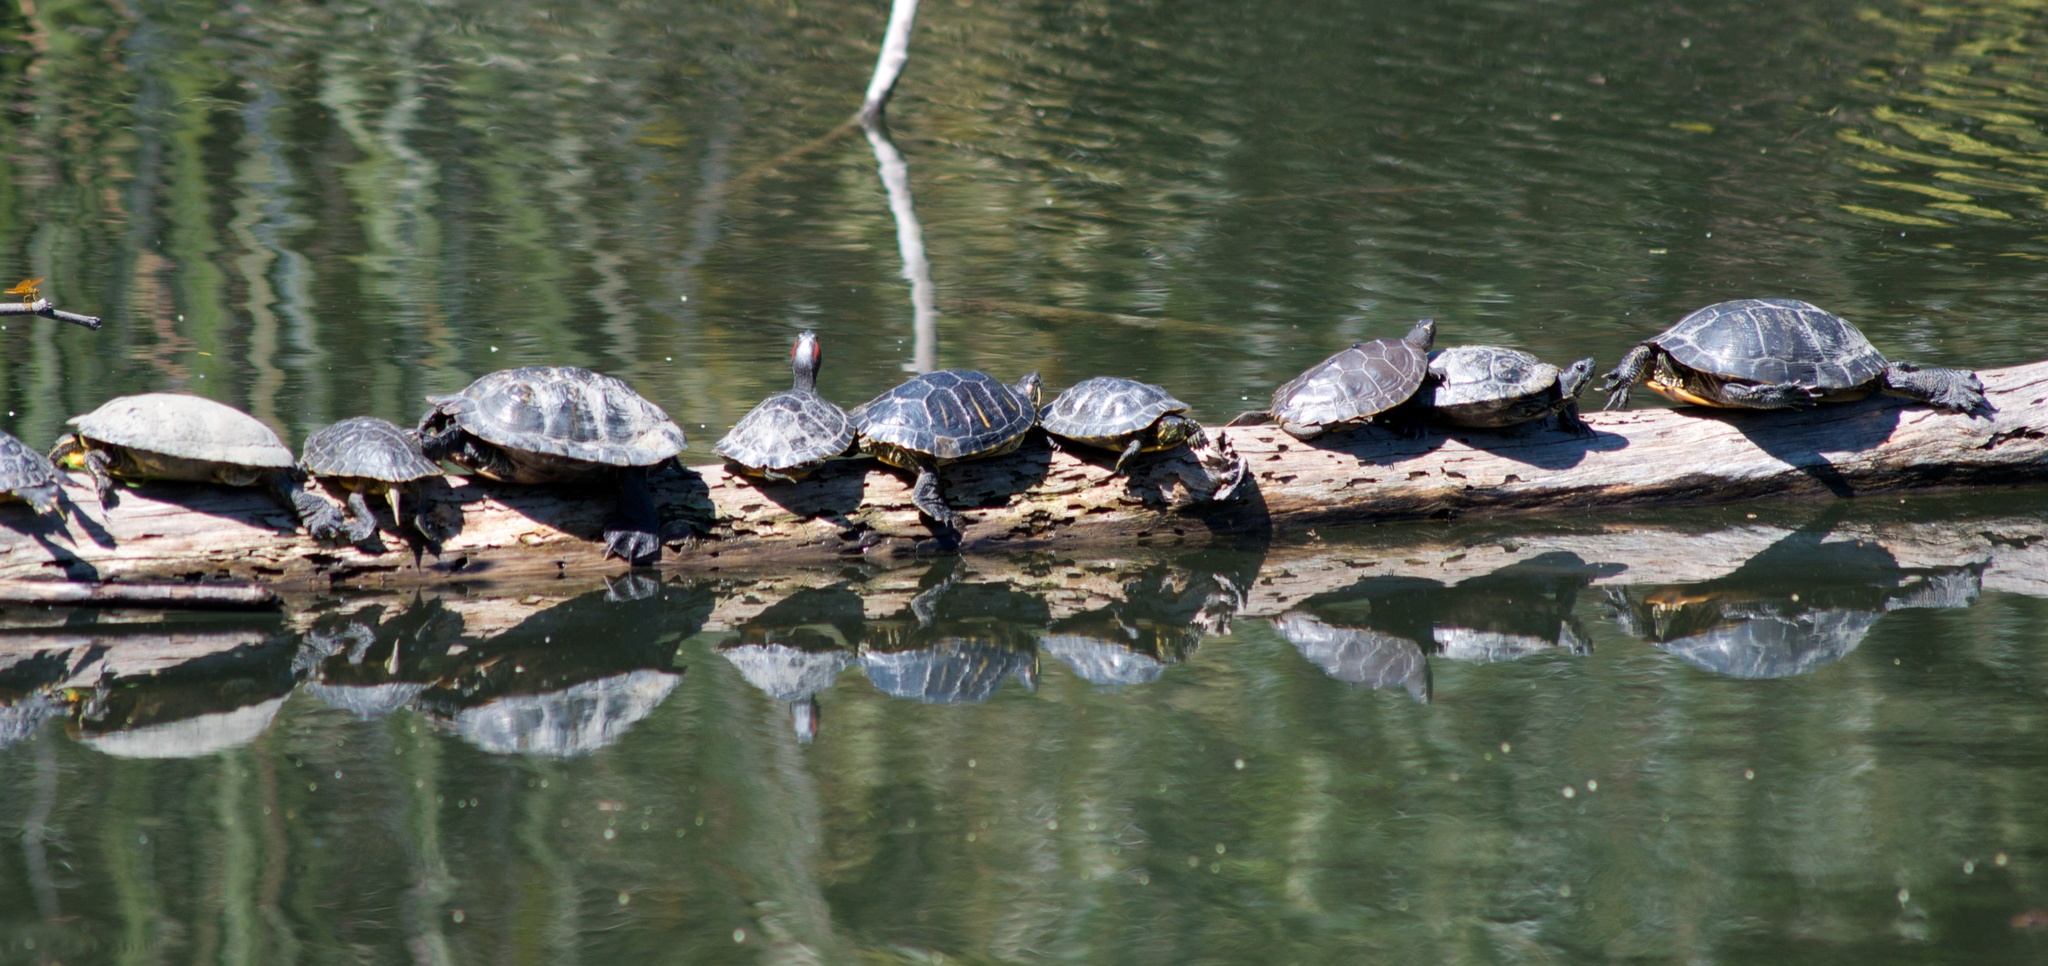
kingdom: Animalia
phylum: Chordata
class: Testudines
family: Emydidae
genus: Trachemys
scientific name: Trachemys scripta
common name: Slider
